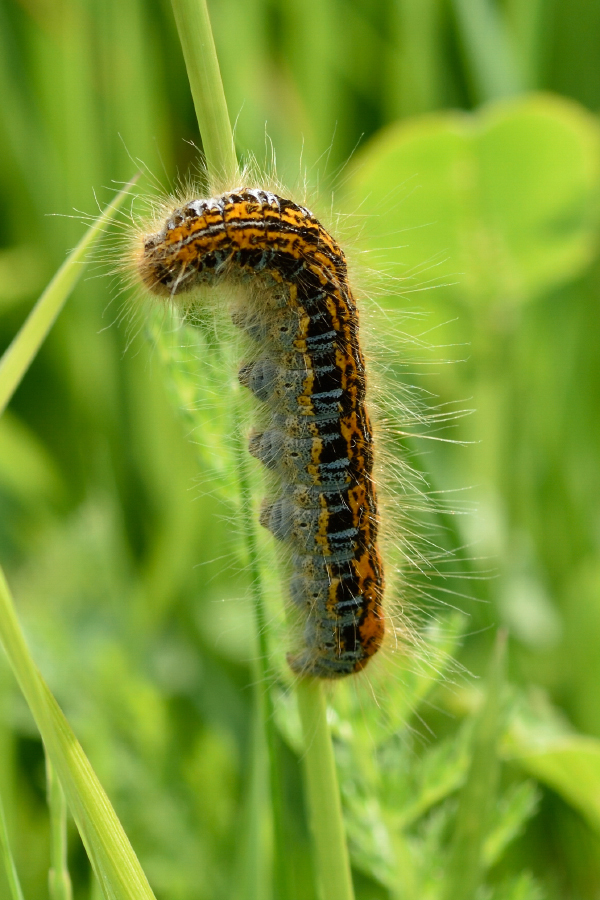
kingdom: Animalia
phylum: Arthropoda
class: Insecta
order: Lepidoptera
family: Lasiocampidae
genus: Malacosoma
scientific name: Malacosoma castrense
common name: Ground lackey
